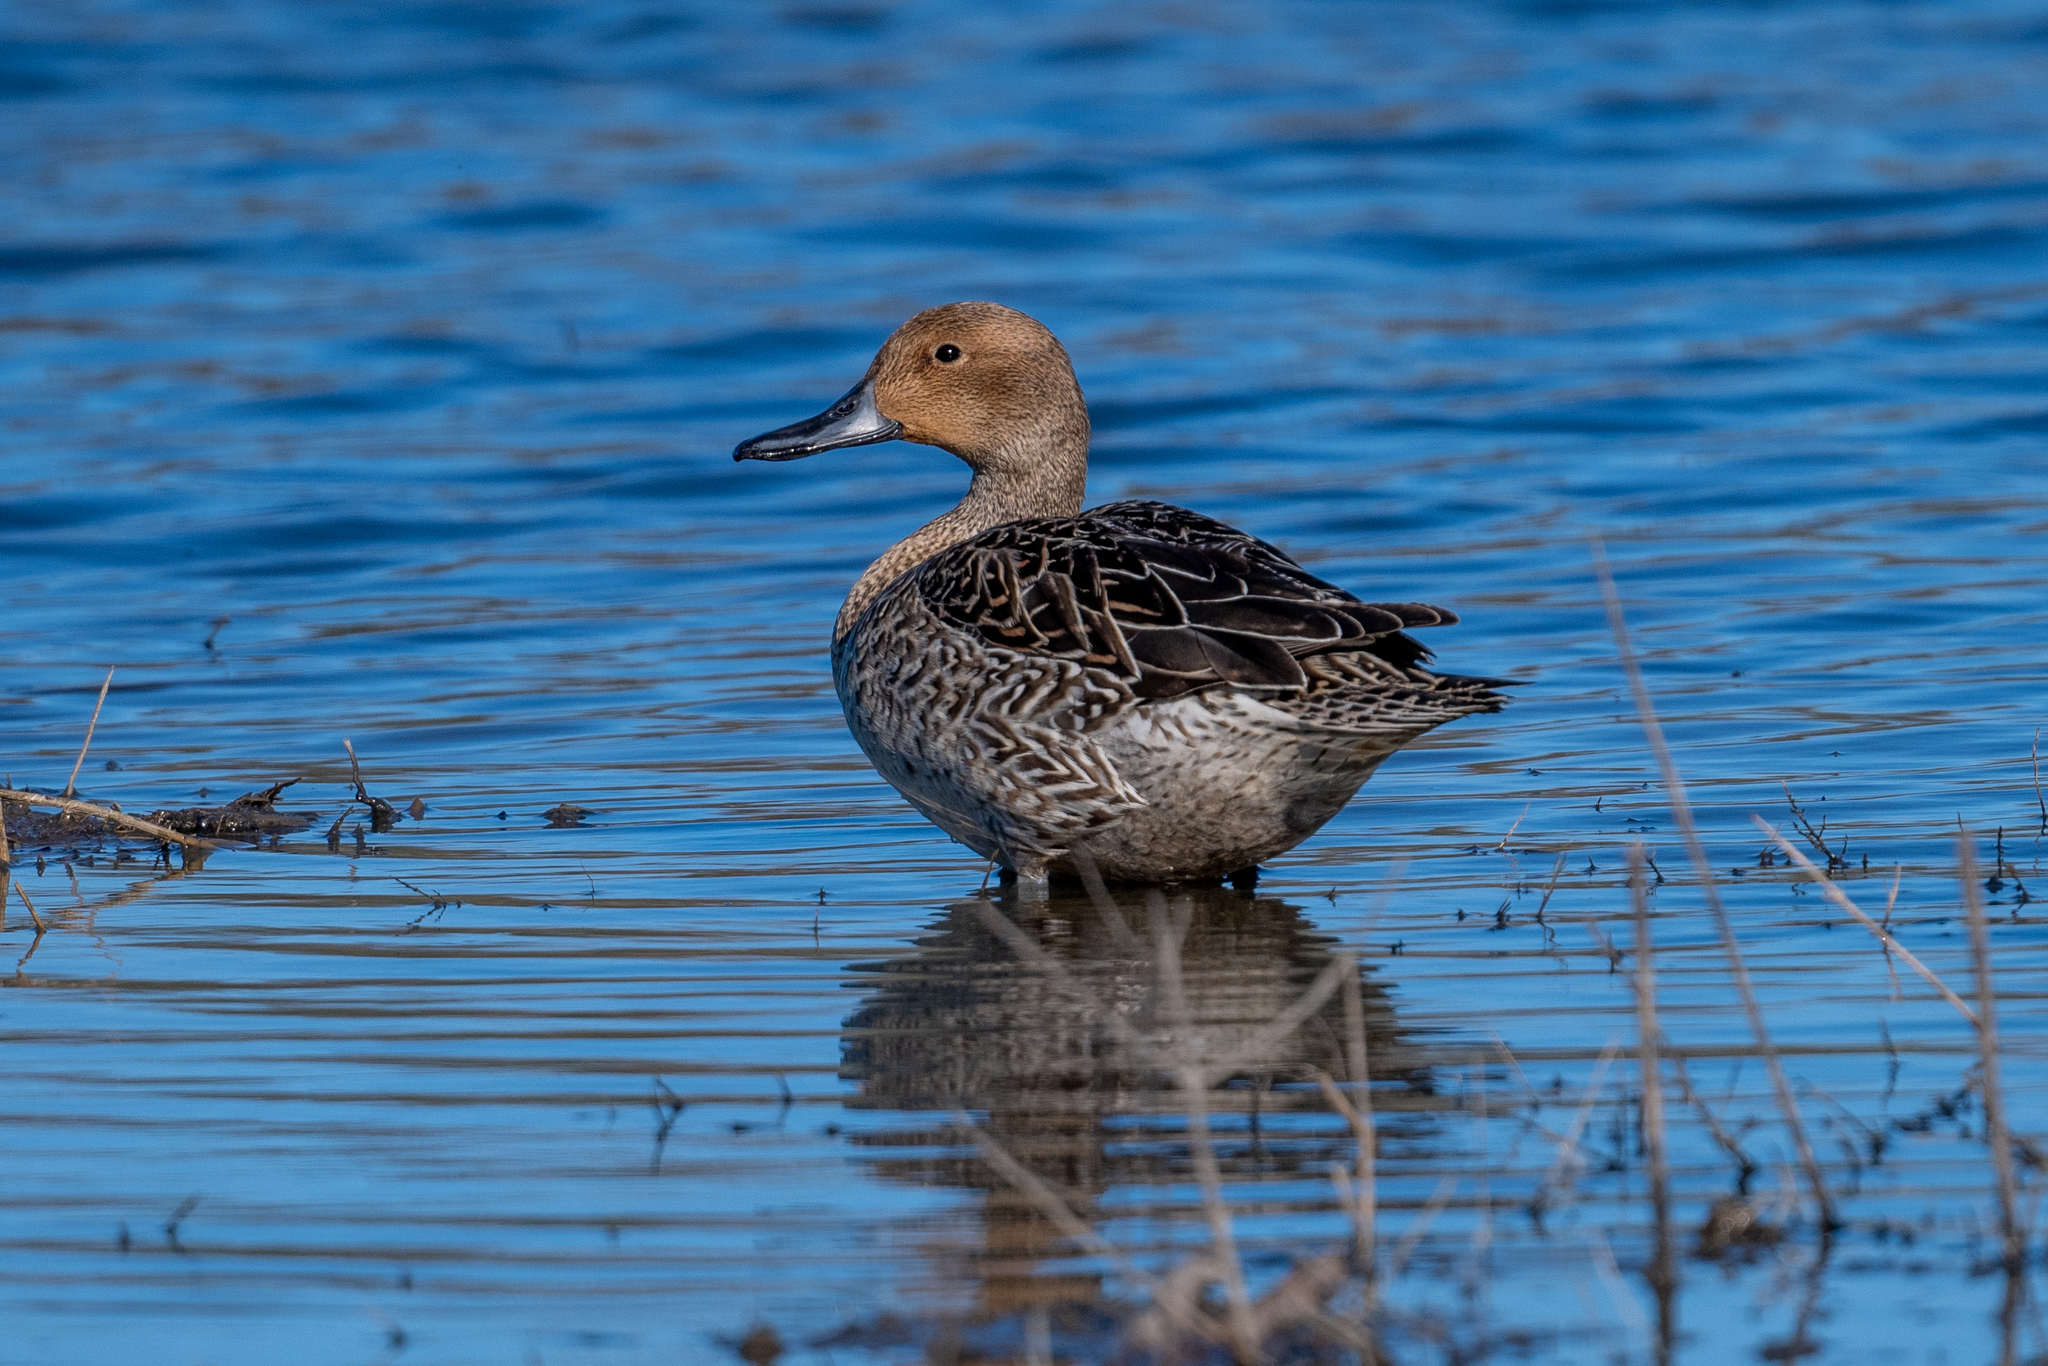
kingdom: Animalia
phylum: Chordata
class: Aves
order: Anseriformes
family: Anatidae
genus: Anas
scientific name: Anas acuta
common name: Northern pintail
